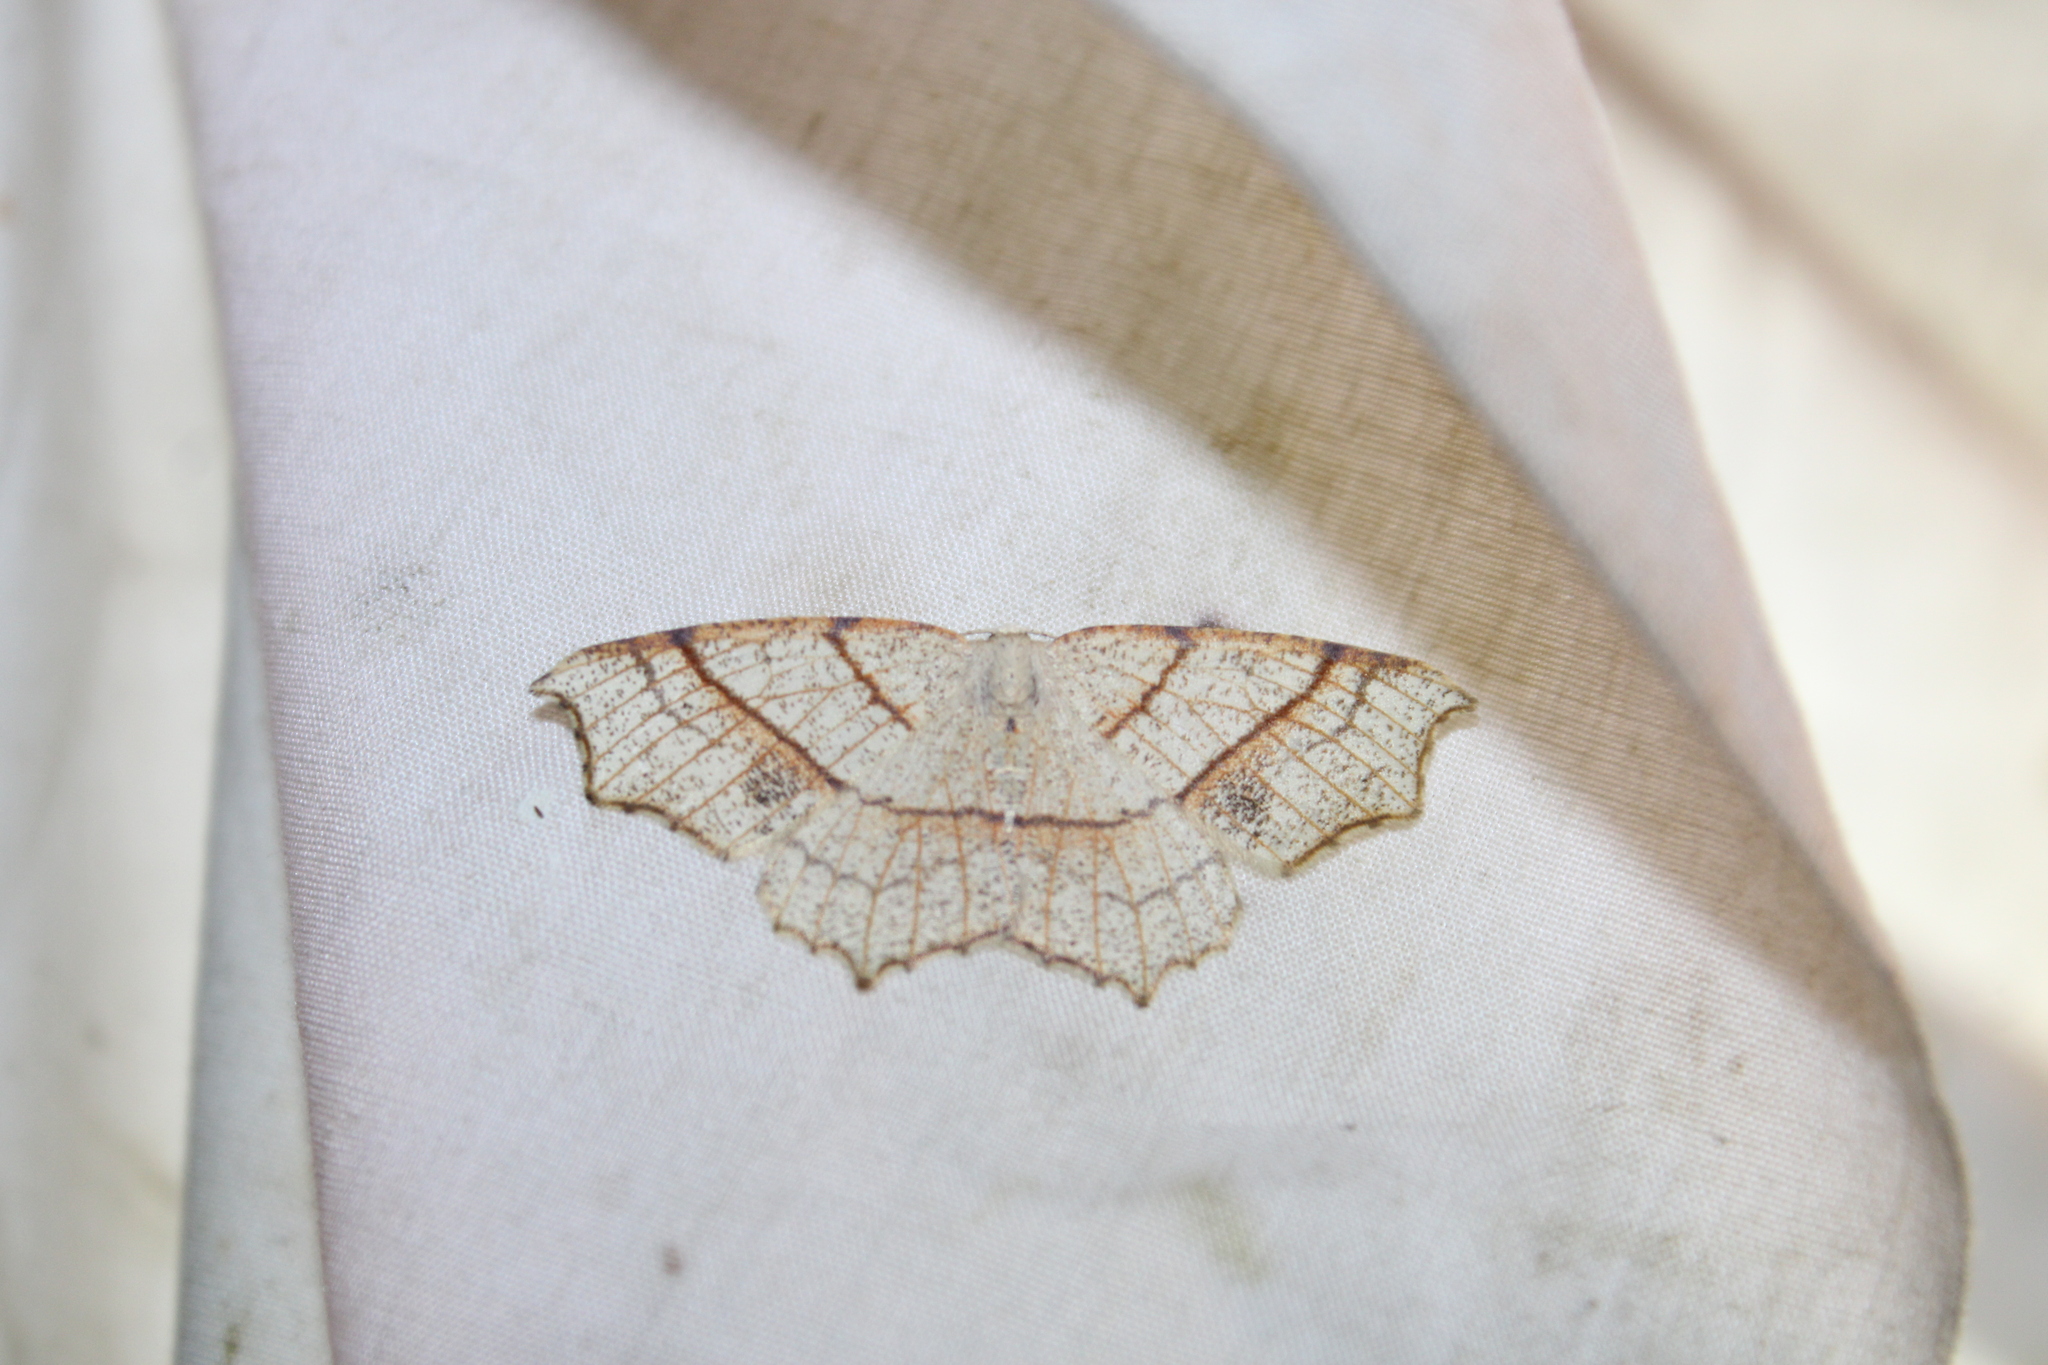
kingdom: Animalia
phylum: Arthropoda
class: Insecta
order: Lepidoptera
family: Geometridae
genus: Besma
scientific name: Besma quercivoraria
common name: Oak besma
